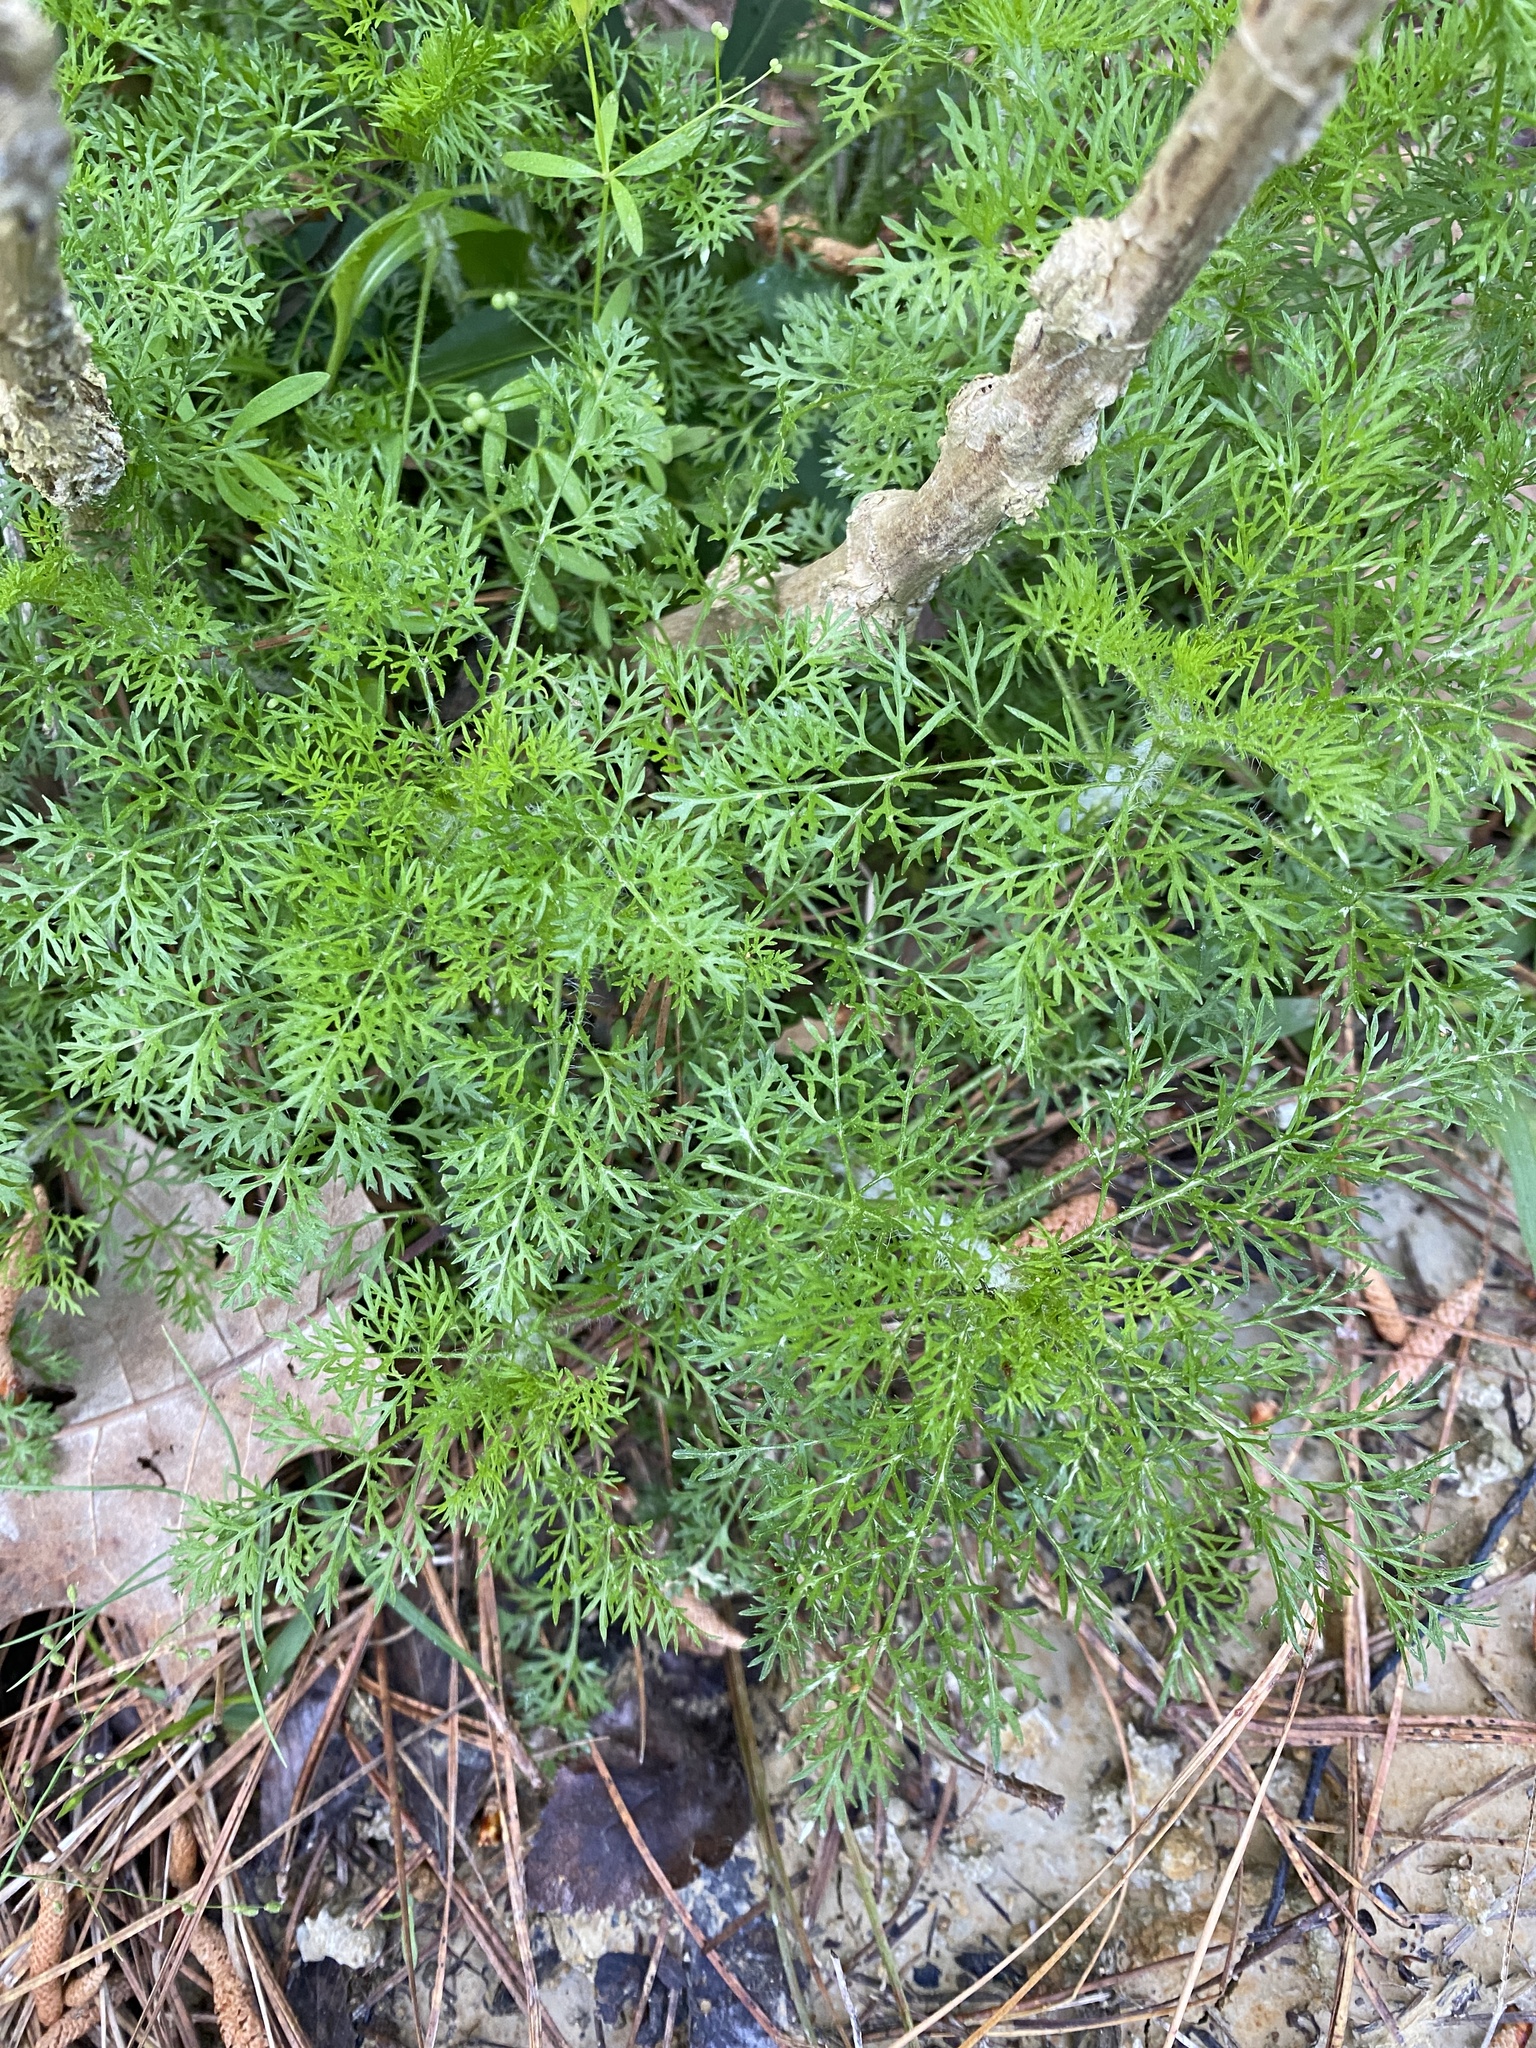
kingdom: Plantae
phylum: Tracheophyta
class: Magnoliopsida
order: Asterales
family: Asteraceae
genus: Eupatorium
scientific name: Eupatorium capillifolium
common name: Dog-fennel
